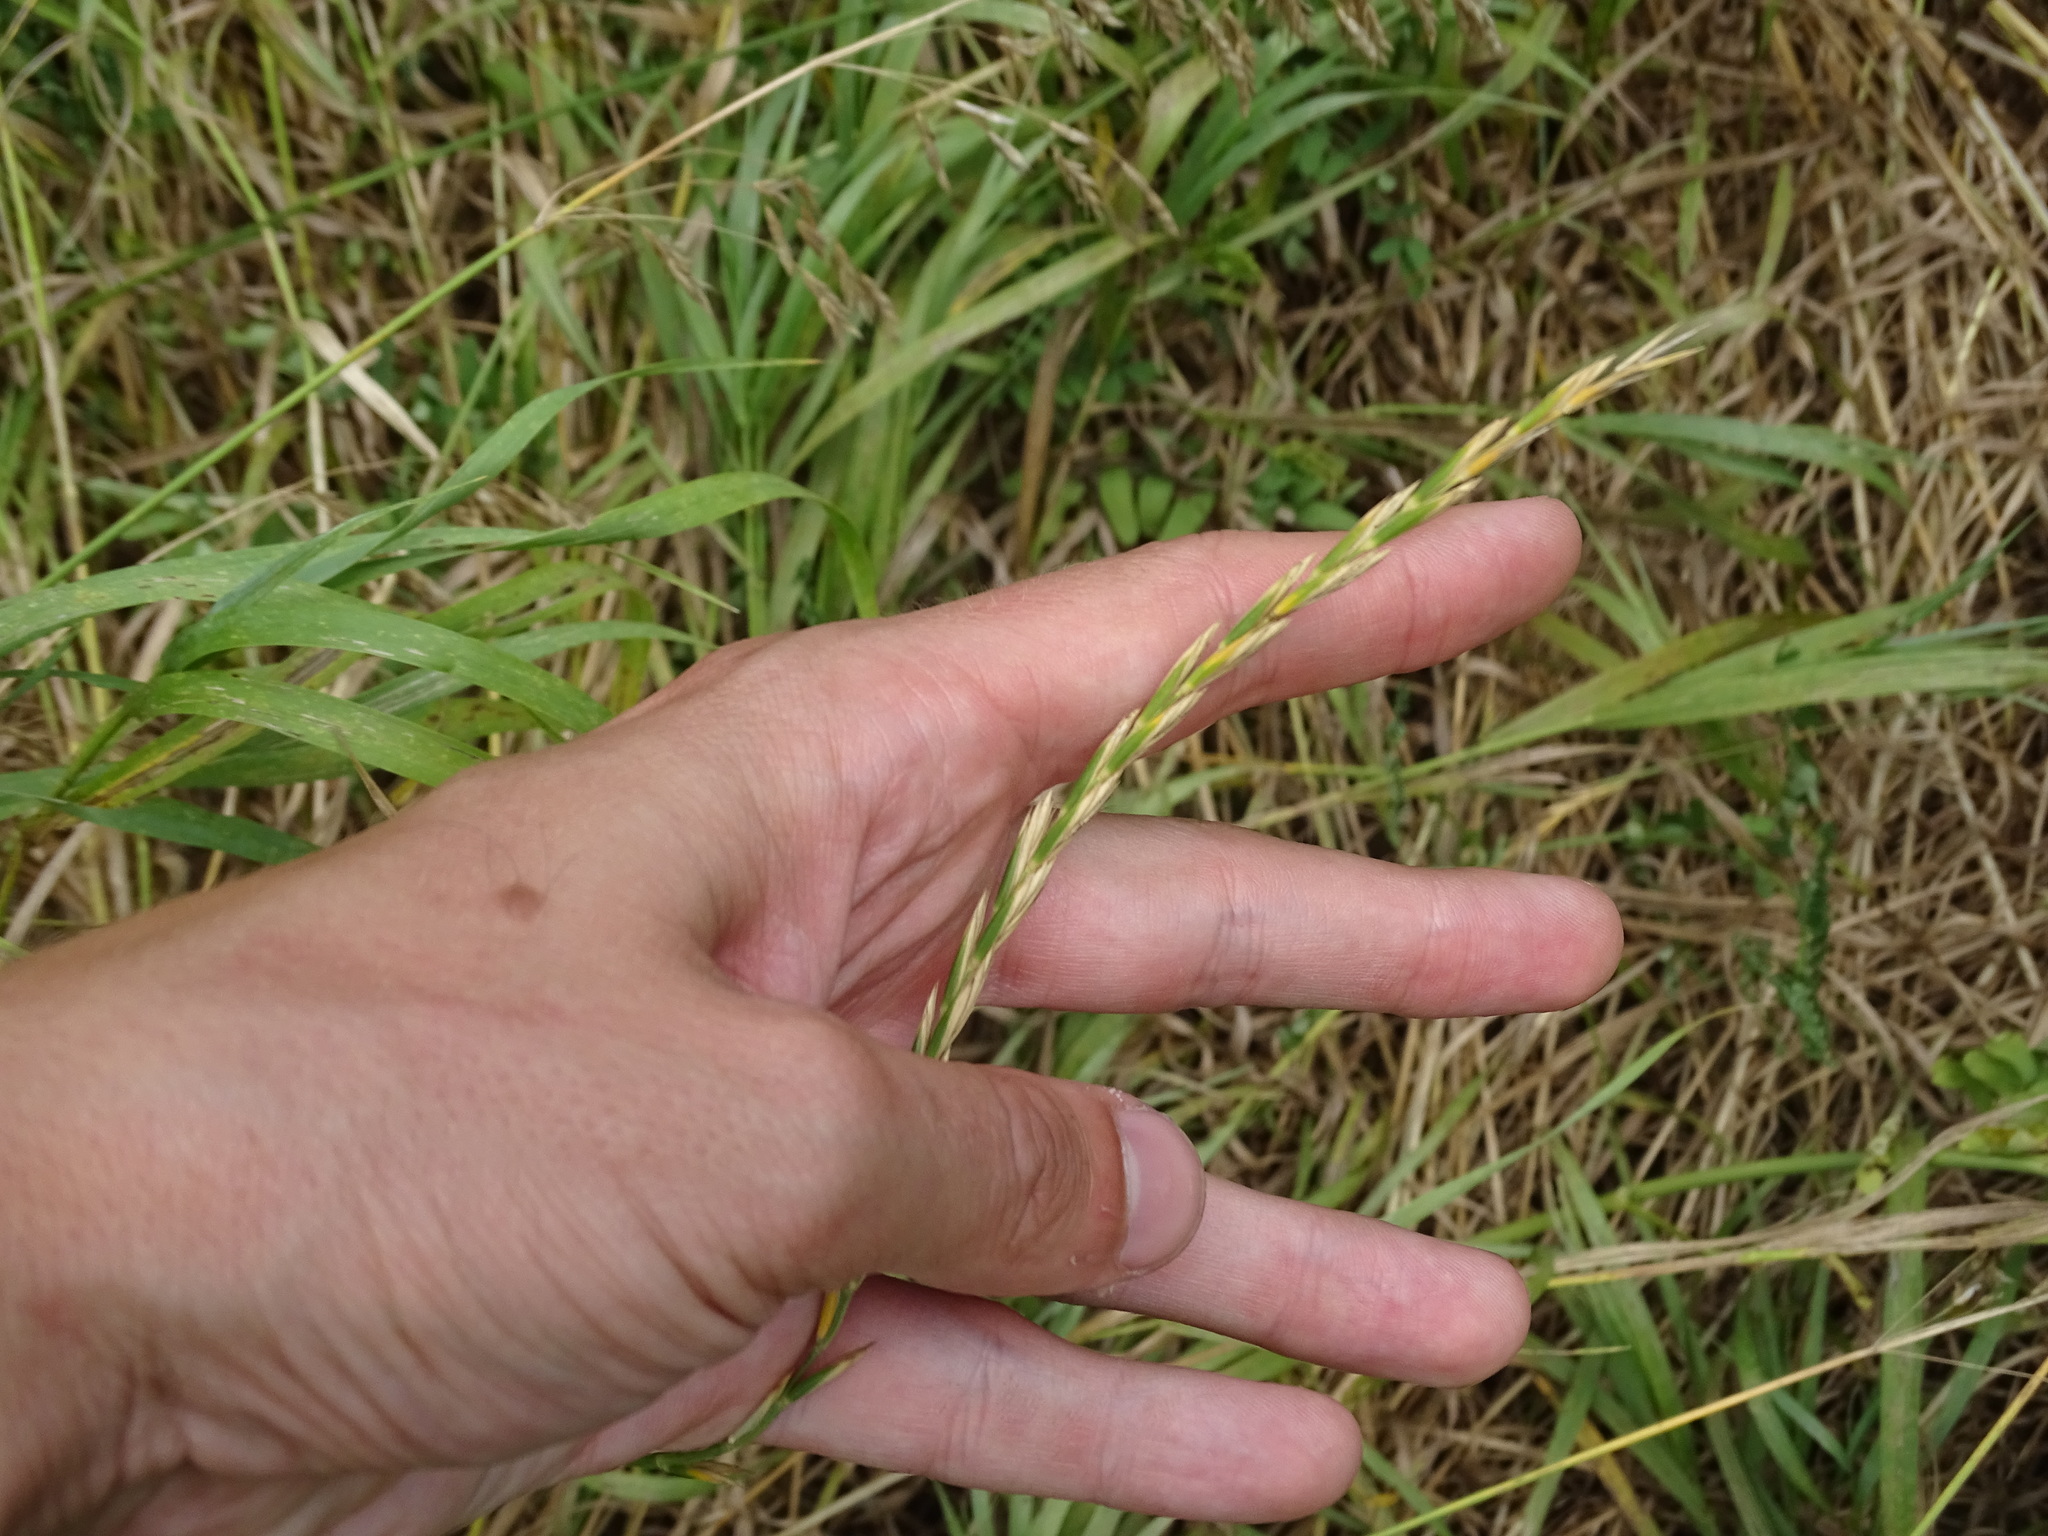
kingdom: Plantae
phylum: Tracheophyta
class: Liliopsida
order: Poales
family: Poaceae
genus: Elymus
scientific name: Elymus repens
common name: Quackgrass
